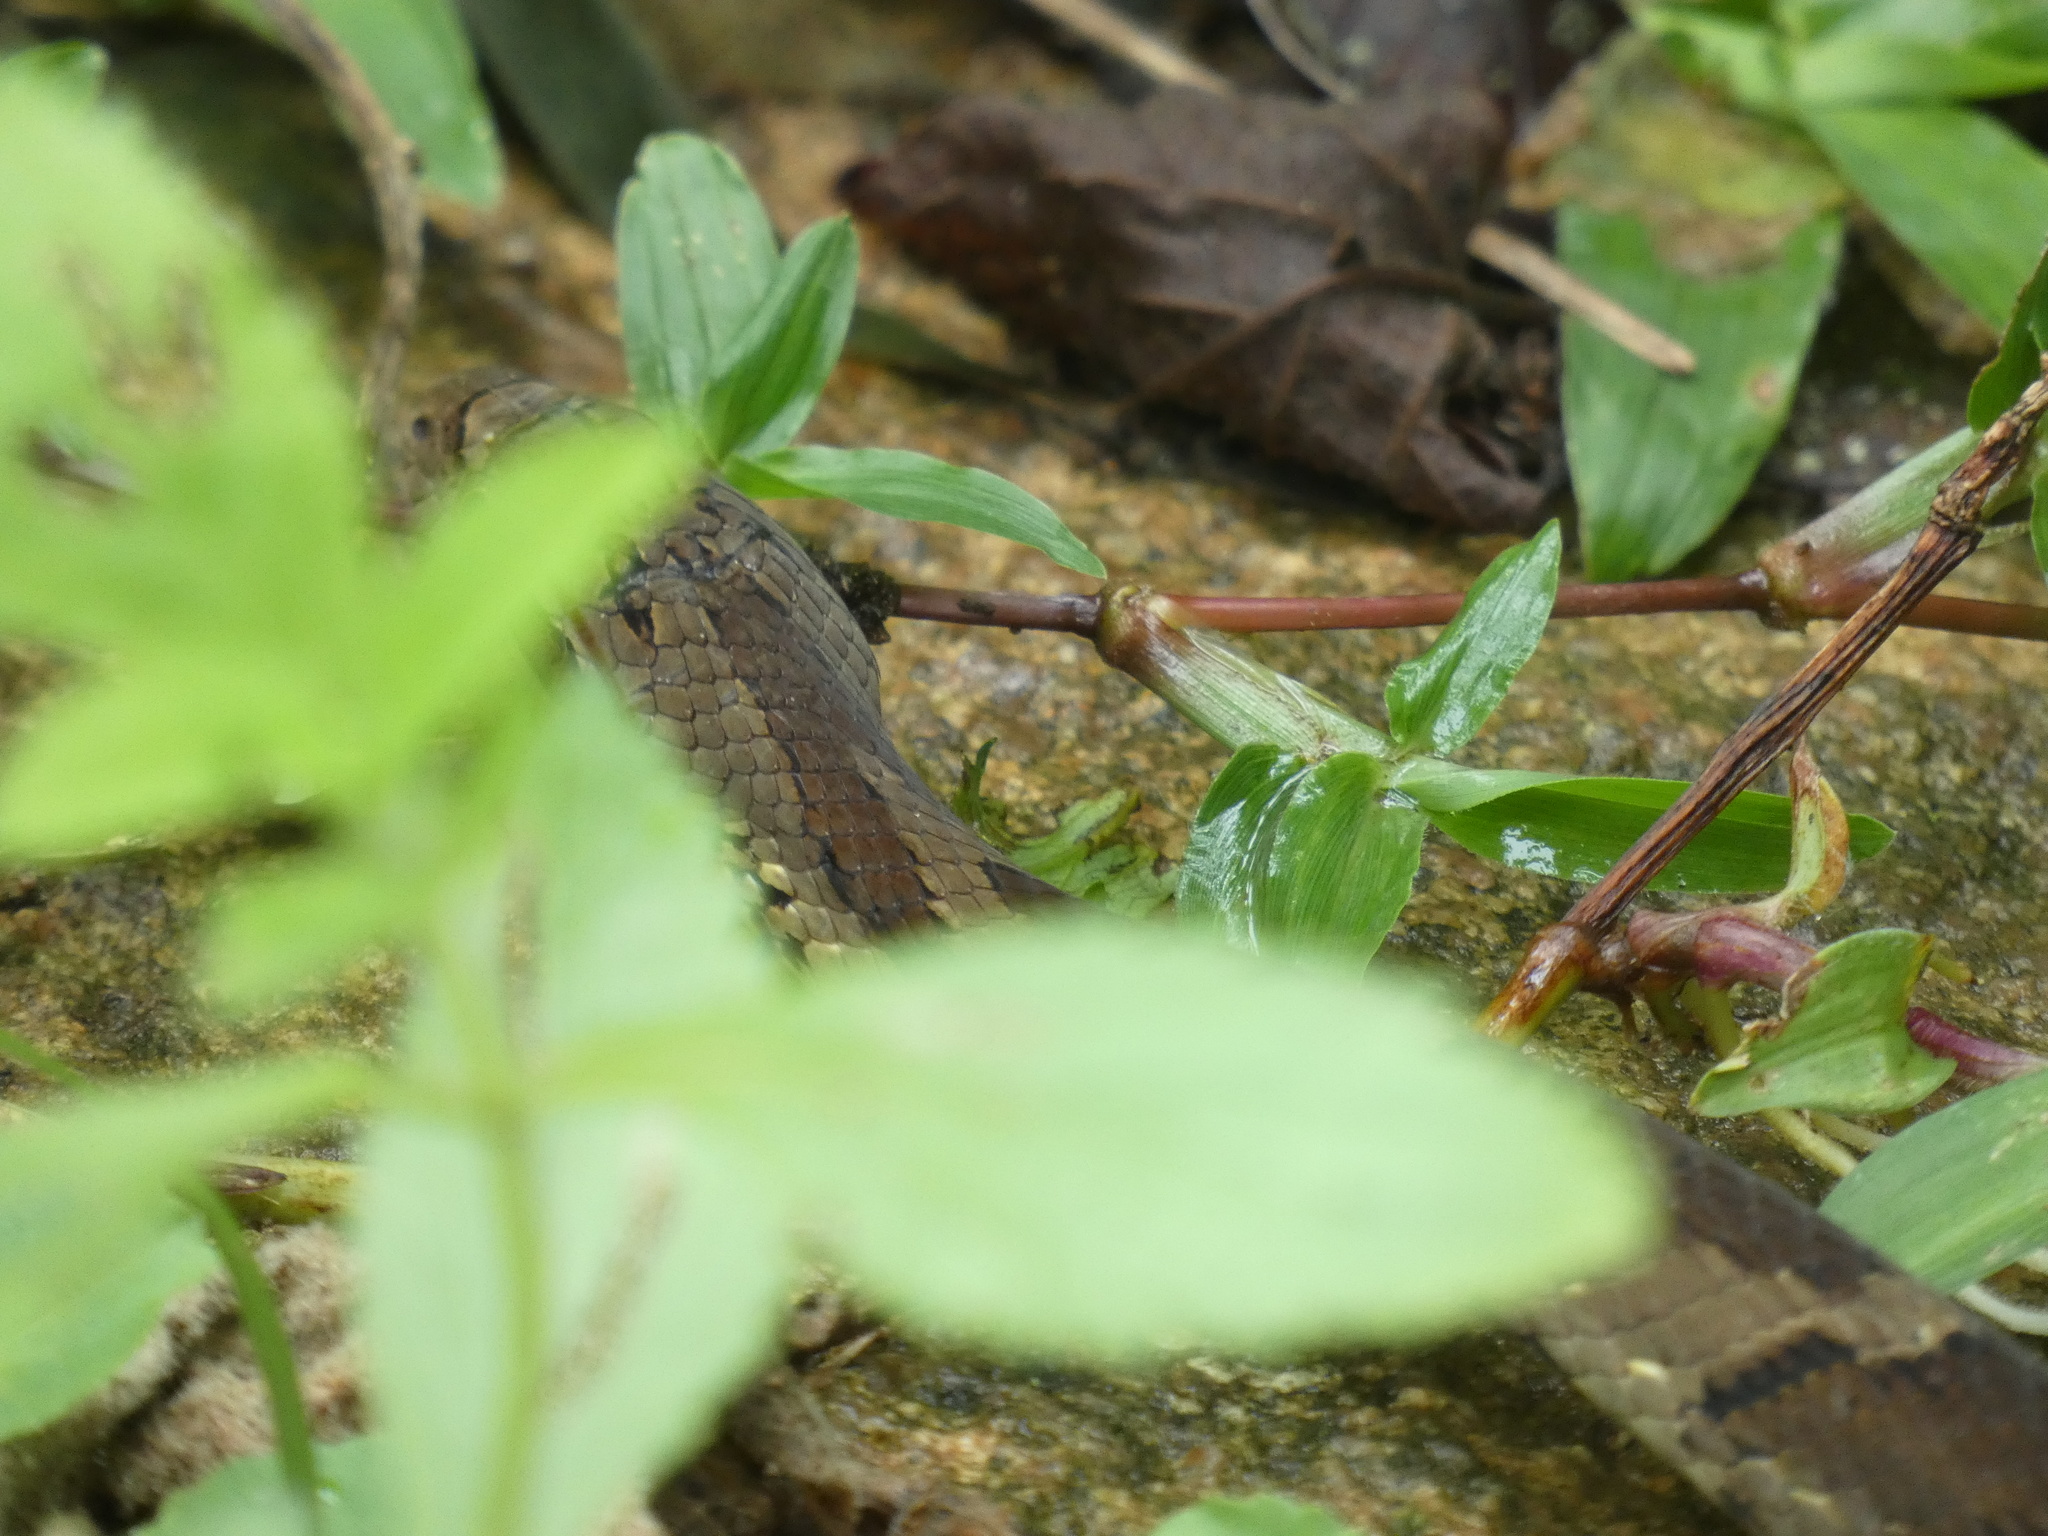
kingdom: Animalia
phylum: Chordata
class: Squamata
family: Colubridae
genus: Xenodon
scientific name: Xenodon neuwiedii
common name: Neuwied's false fer-de-lance
